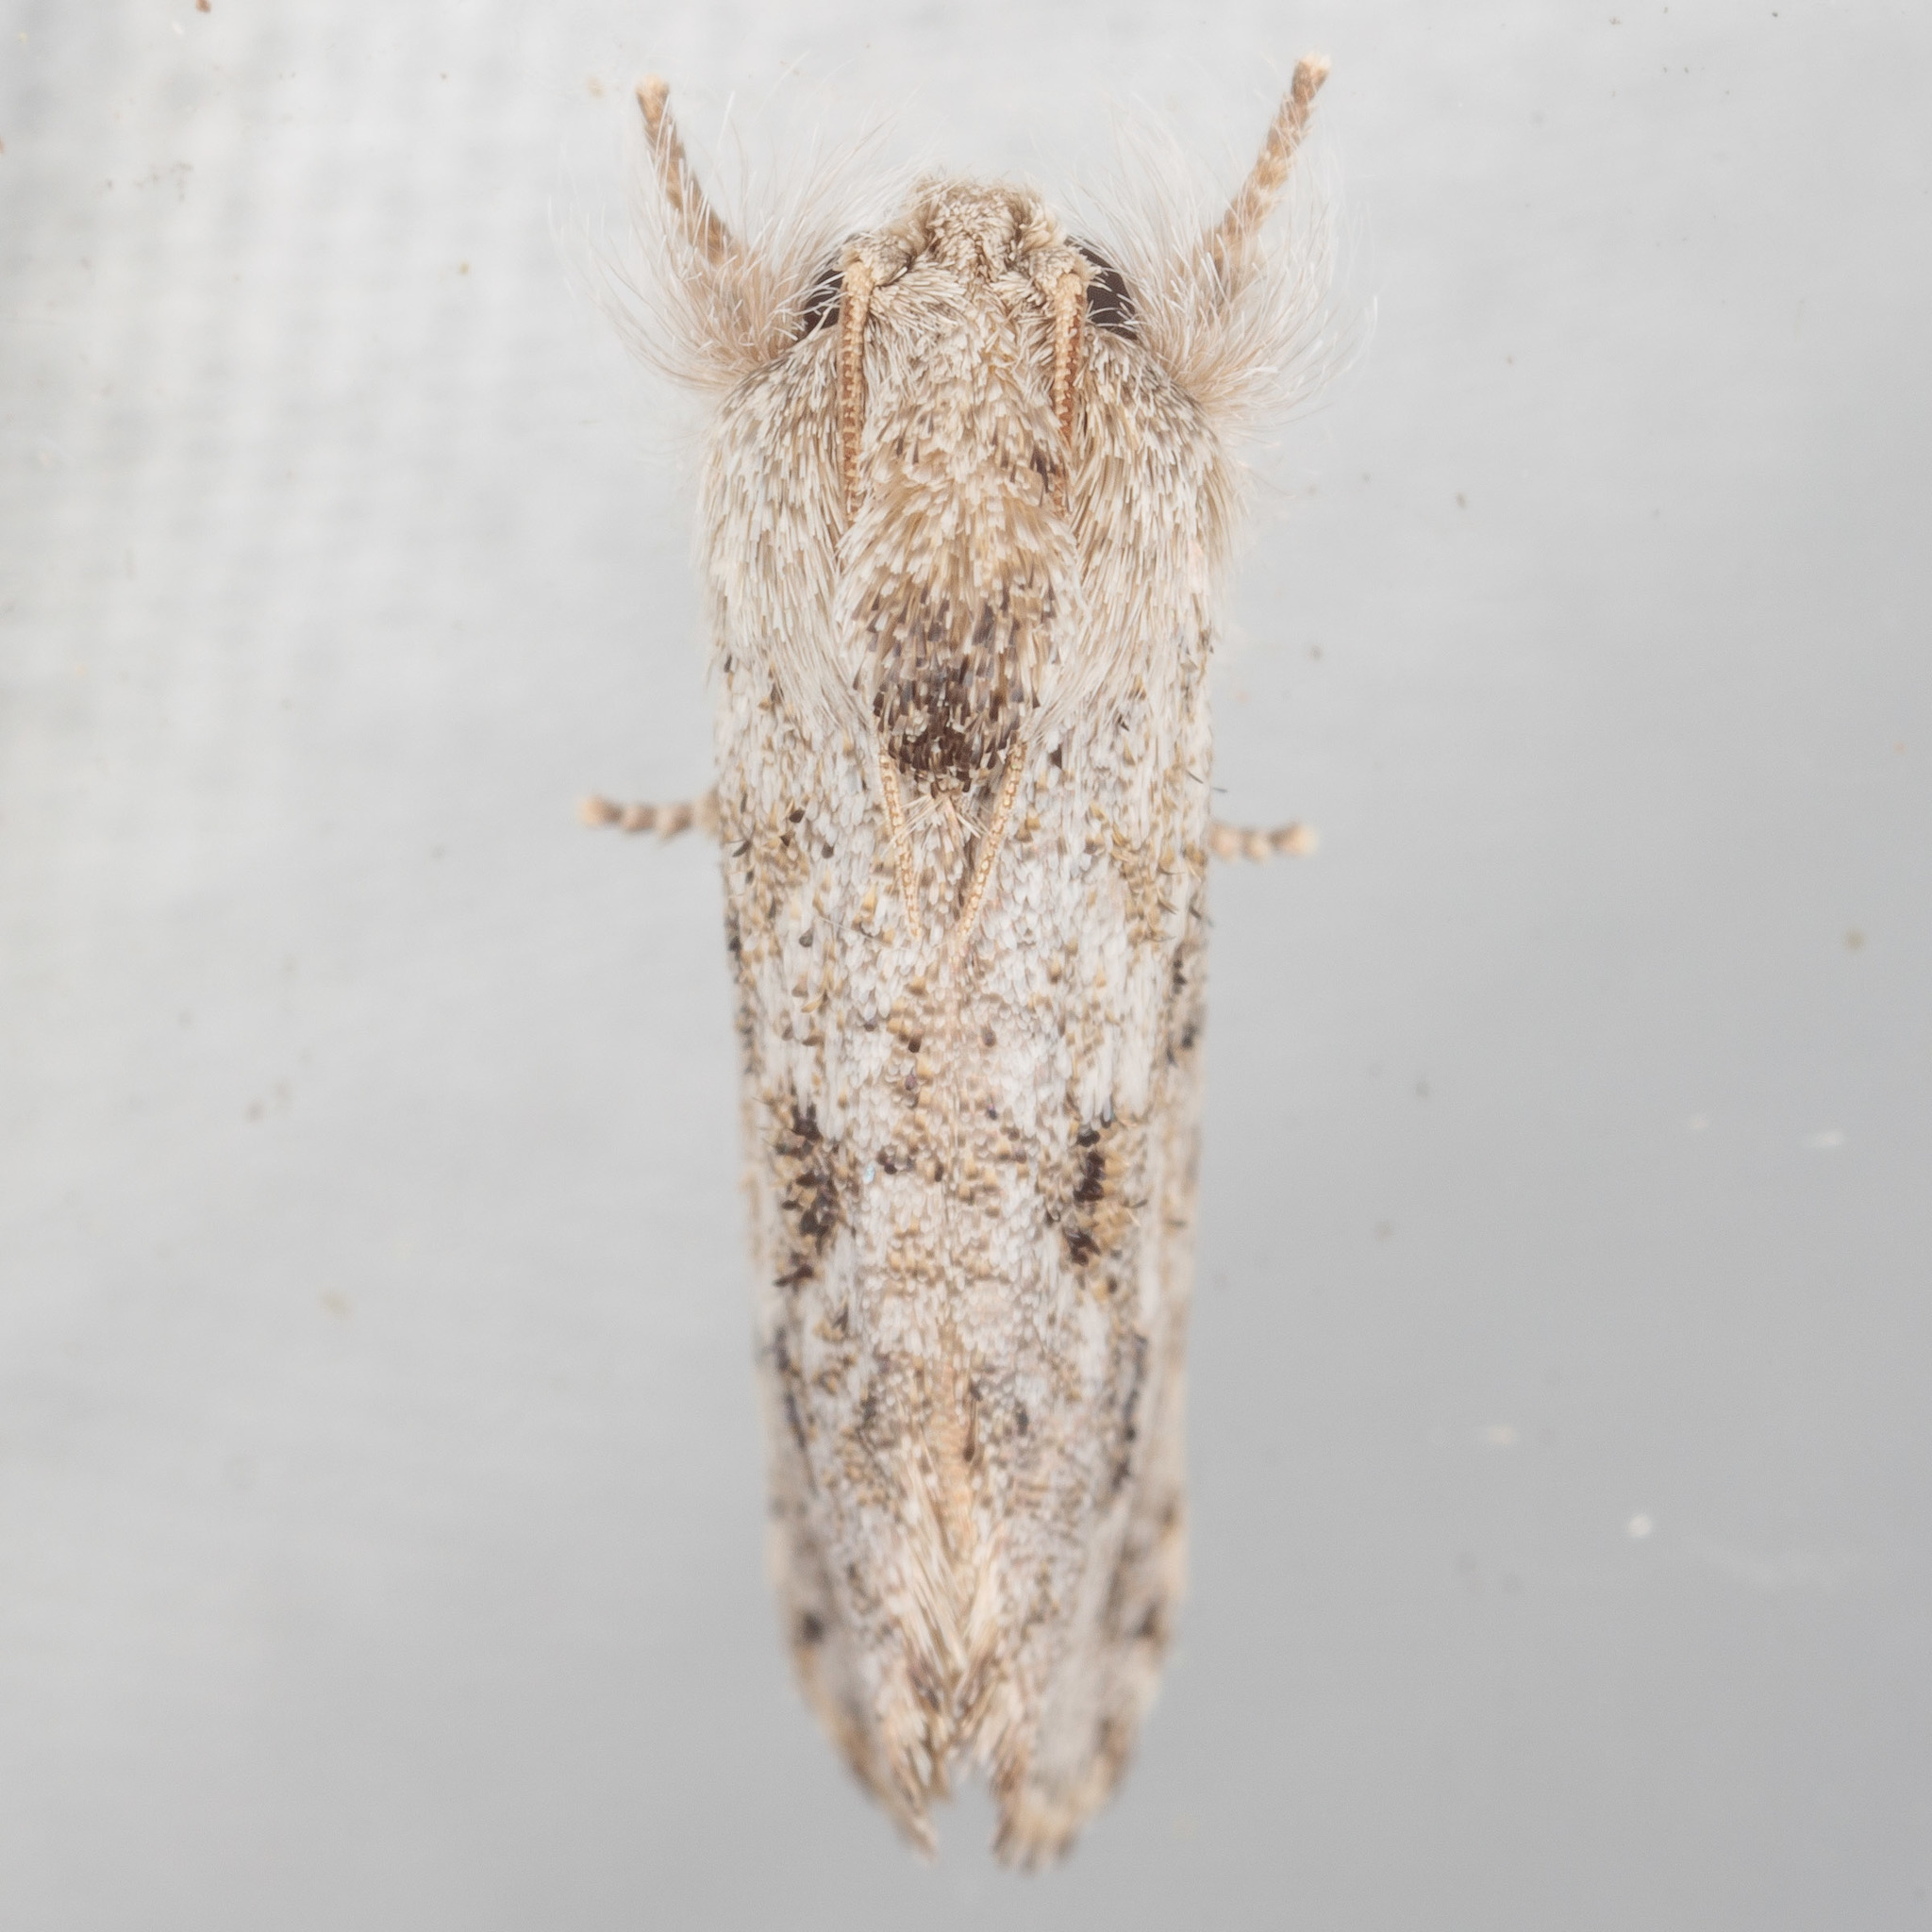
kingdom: Animalia
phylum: Arthropoda
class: Insecta
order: Lepidoptera
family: Tineidae
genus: Acrolophus
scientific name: Acrolophus griseus
